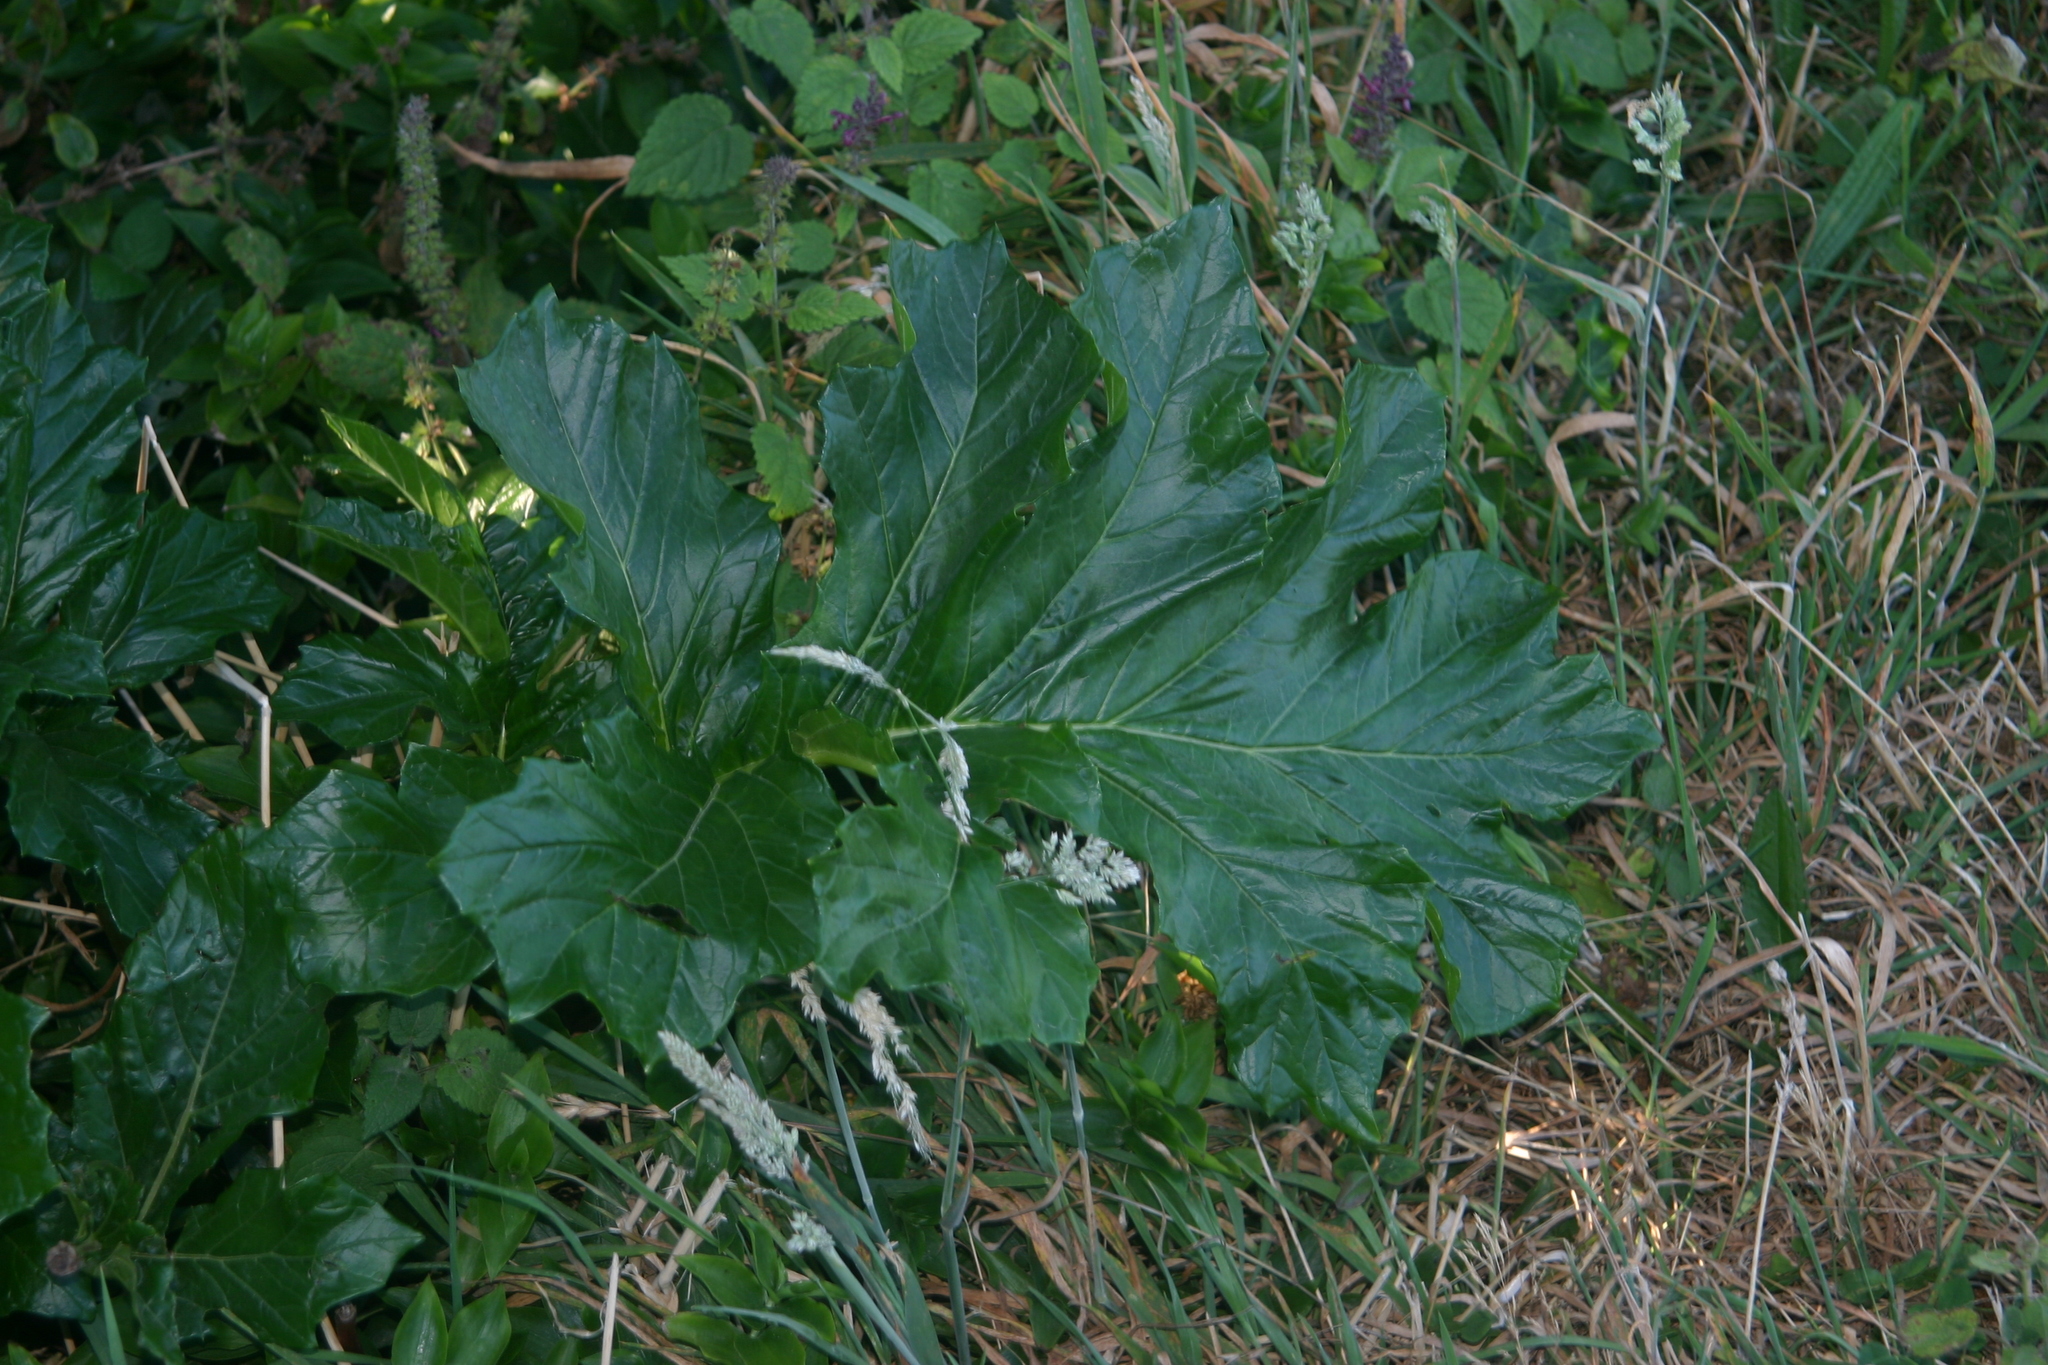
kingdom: Plantae
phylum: Tracheophyta
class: Magnoliopsida
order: Lamiales
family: Acanthaceae
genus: Acanthus
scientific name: Acanthus mollis
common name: Bear's-breech
